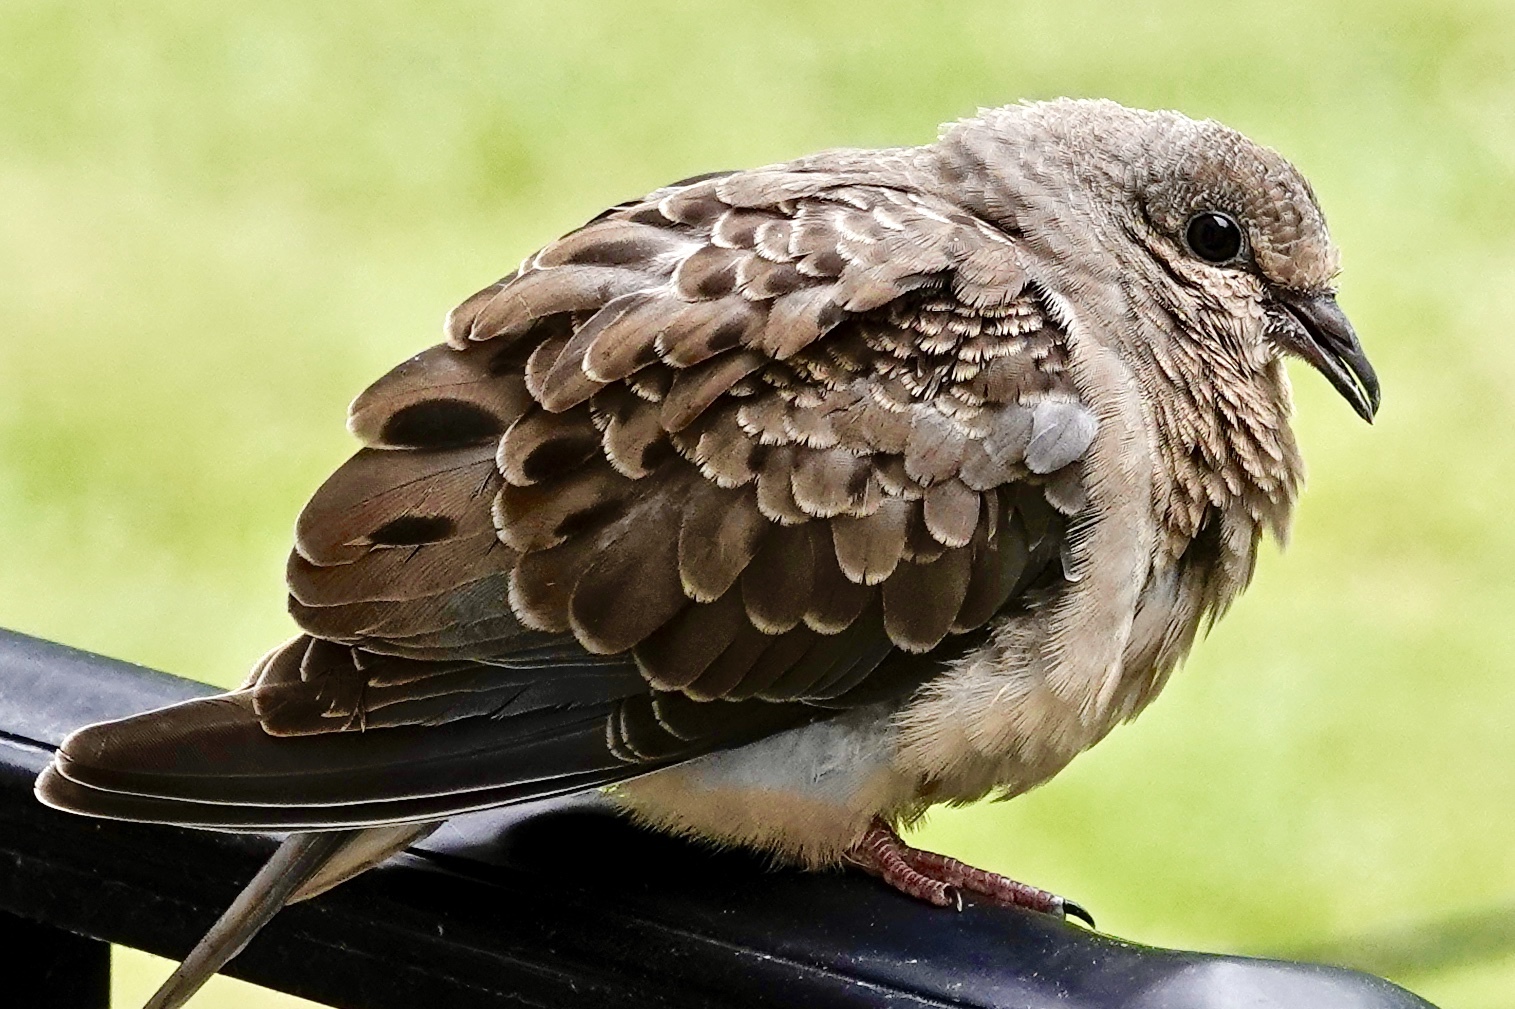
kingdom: Animalia
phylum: Chordata
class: Aves
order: Columbiformes
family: Columbidae
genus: Zenaida
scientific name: Zenaida macroura
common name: Mourning dove
